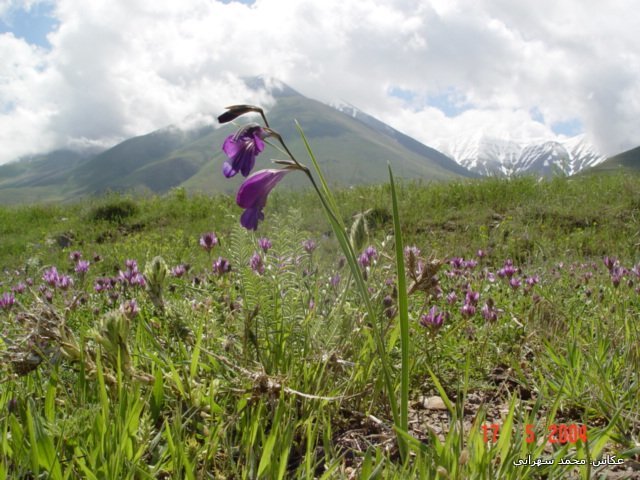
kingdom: Plantae
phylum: Tracheophyta
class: Liliopsida
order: Asparagales
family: Iridaceae
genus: Gladiolus
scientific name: Gladiolus atroviolaceus
